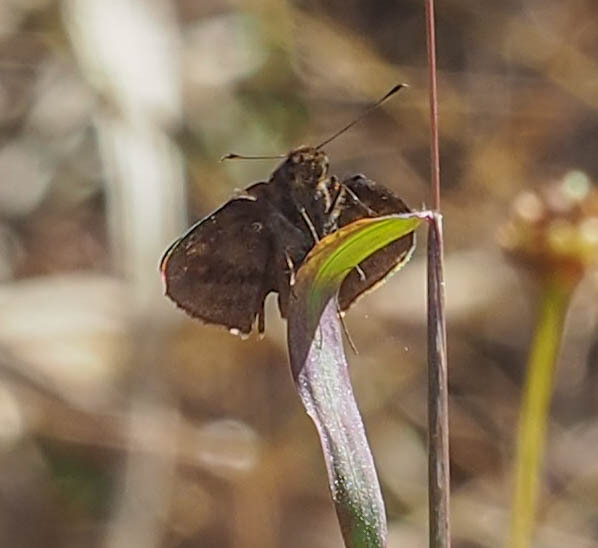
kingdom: Animalia
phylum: Arthropoda
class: Insecta
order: Lepidoptera
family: Hesperiidae
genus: Lerema
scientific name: Lerema accius
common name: Clouded skipper
